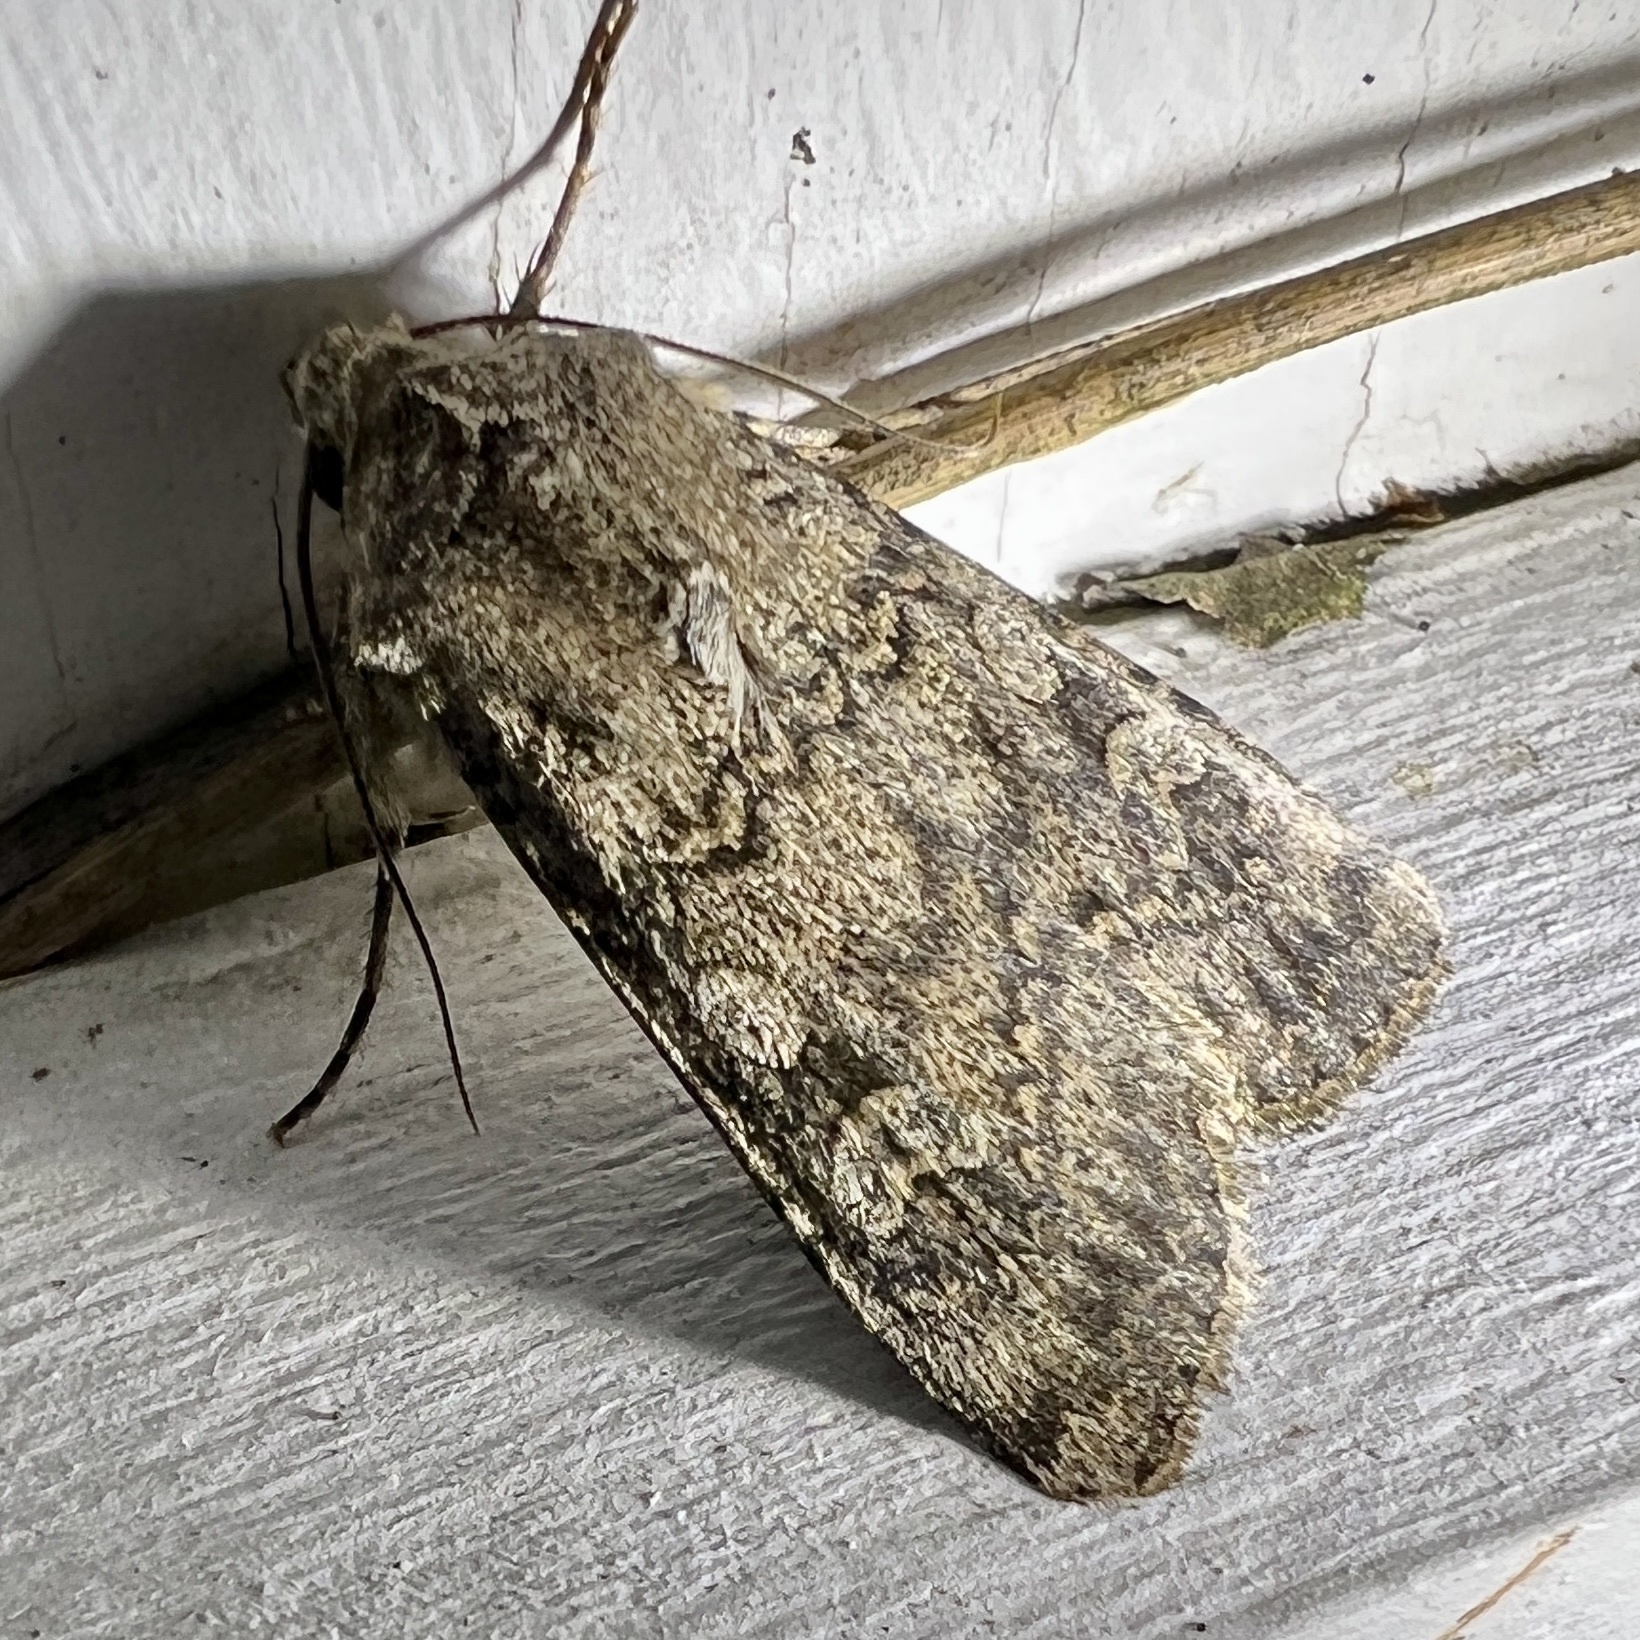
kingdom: Animalia
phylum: Arthropoda
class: Insecta
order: Lepidoptera
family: Noctuidae
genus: Euxoa
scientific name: Euxoa messoria
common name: Darksided cutworm
